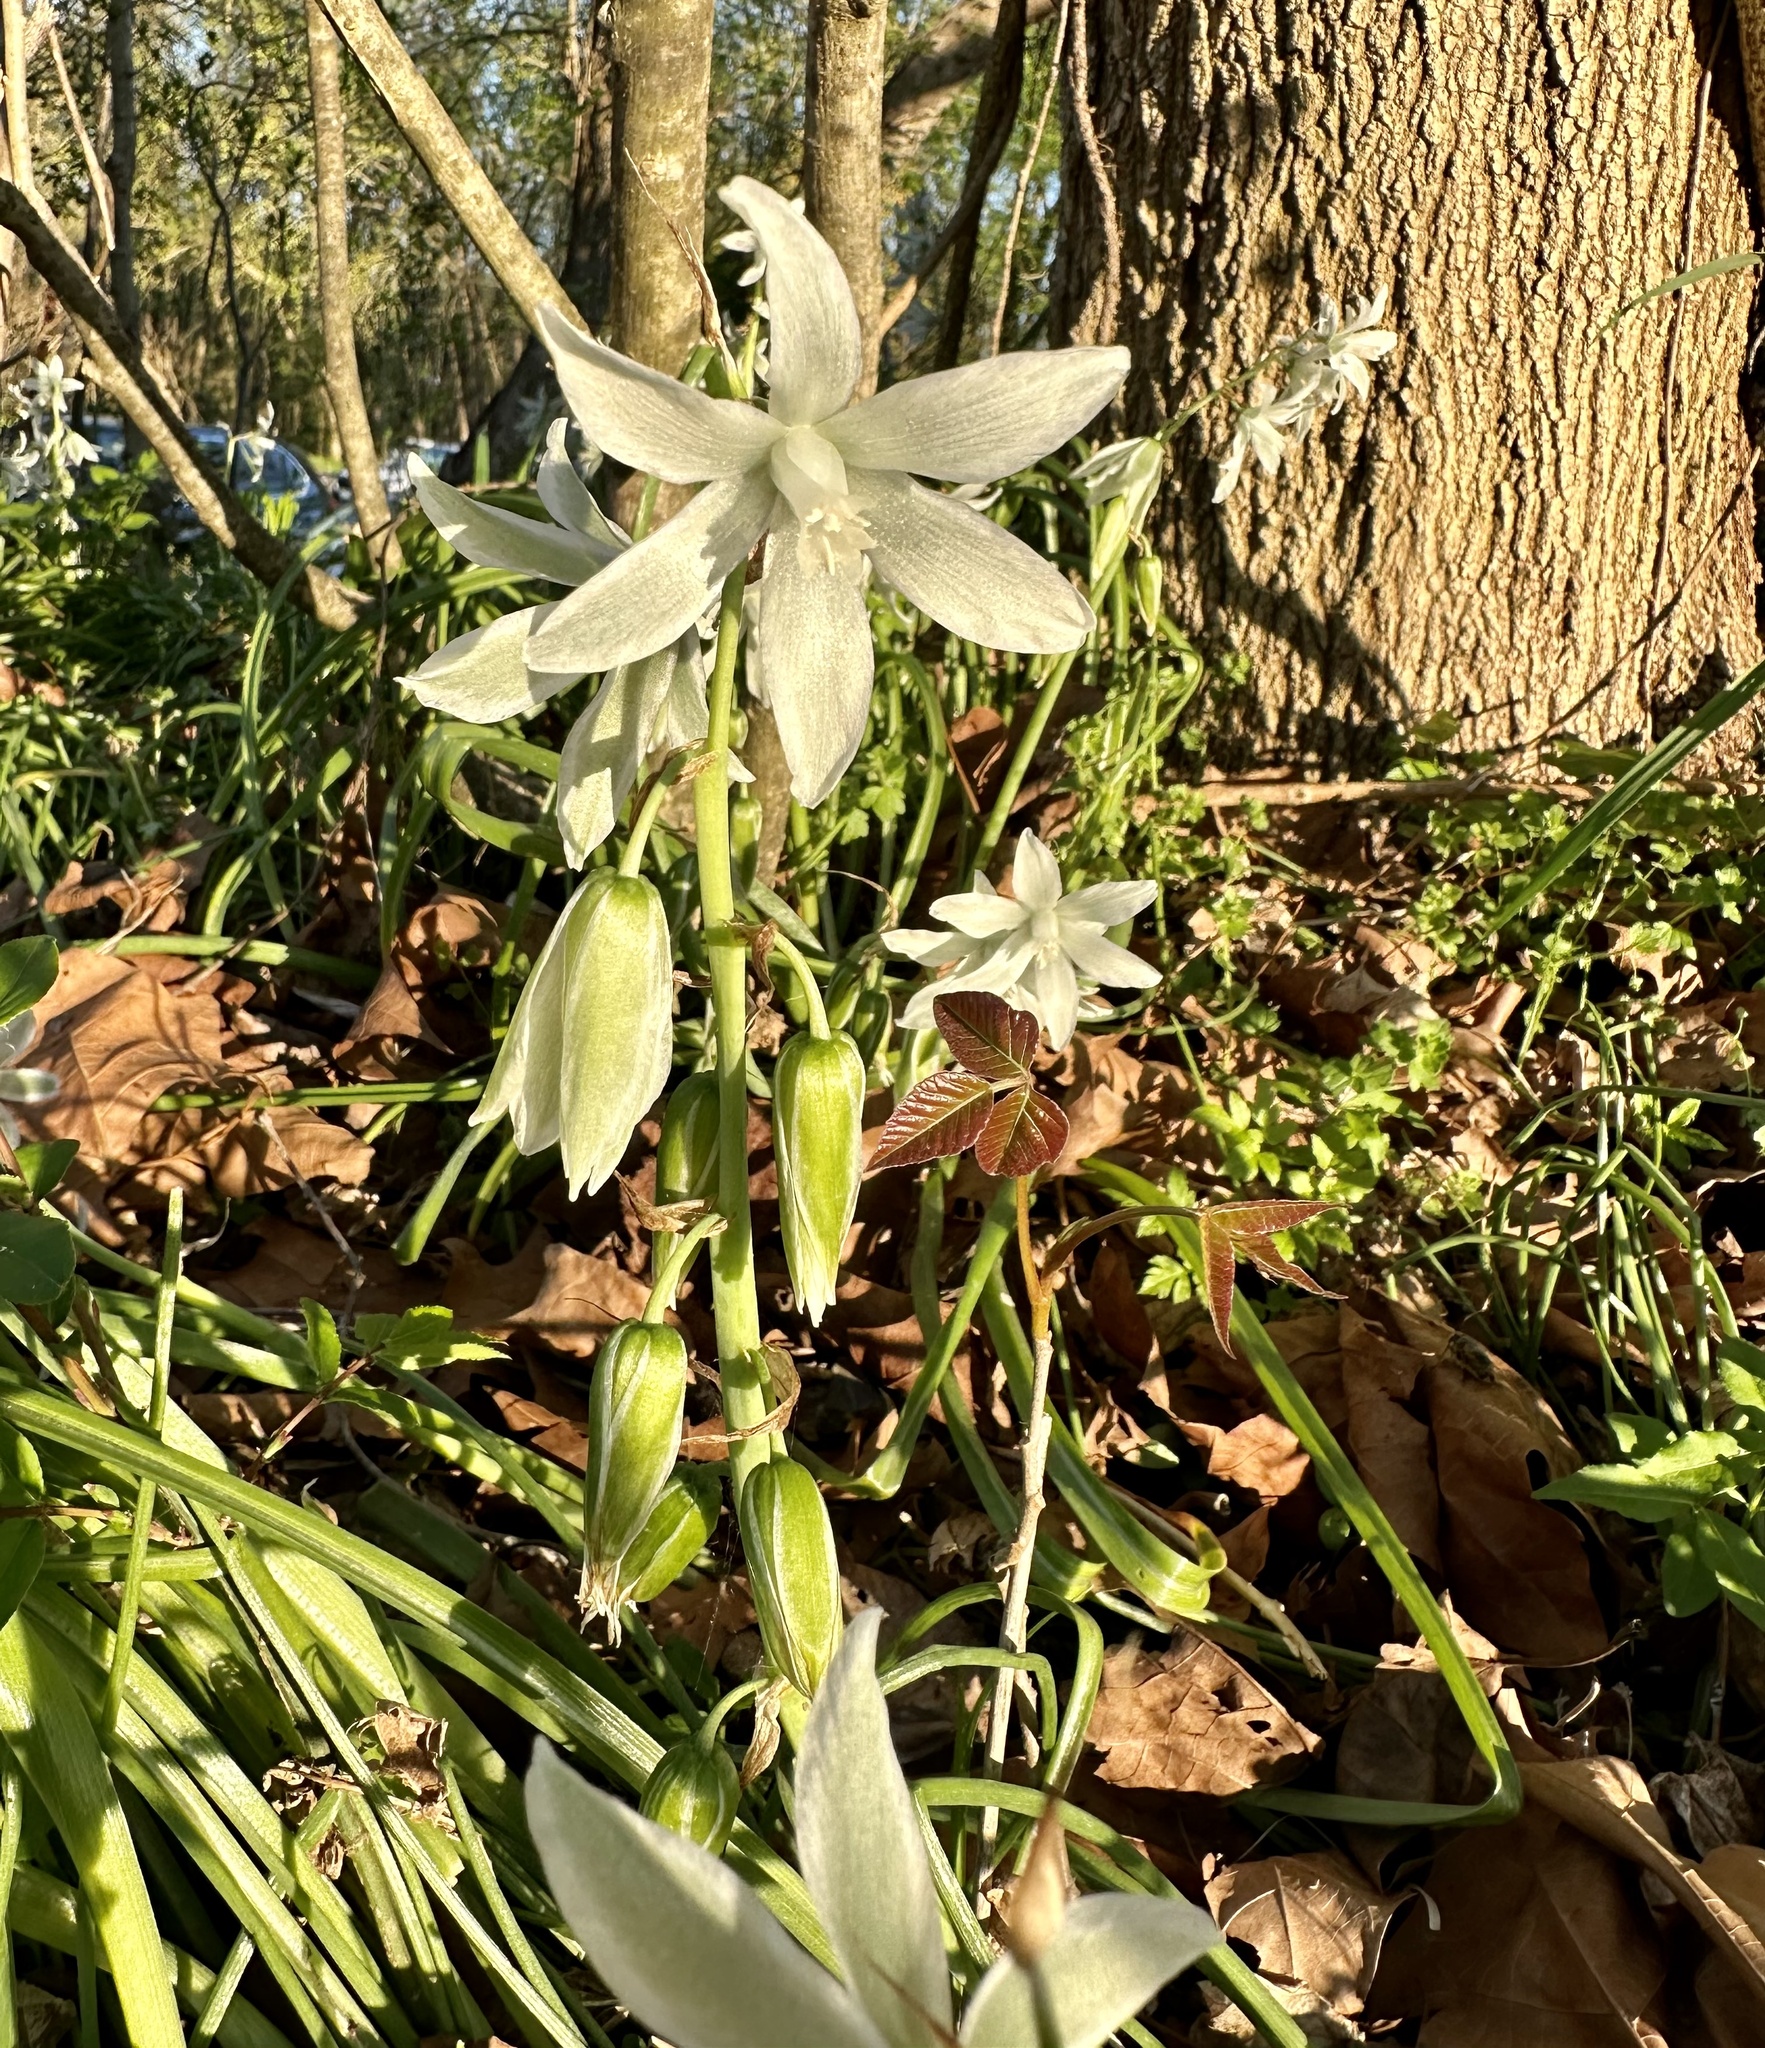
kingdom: Plantae
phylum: Tracheophyta
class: Liliopsida
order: Asparagales
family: Asparagaceae
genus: Ornithogalum
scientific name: Ornithogalum nutans
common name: Drooping star-of-bethlehem
